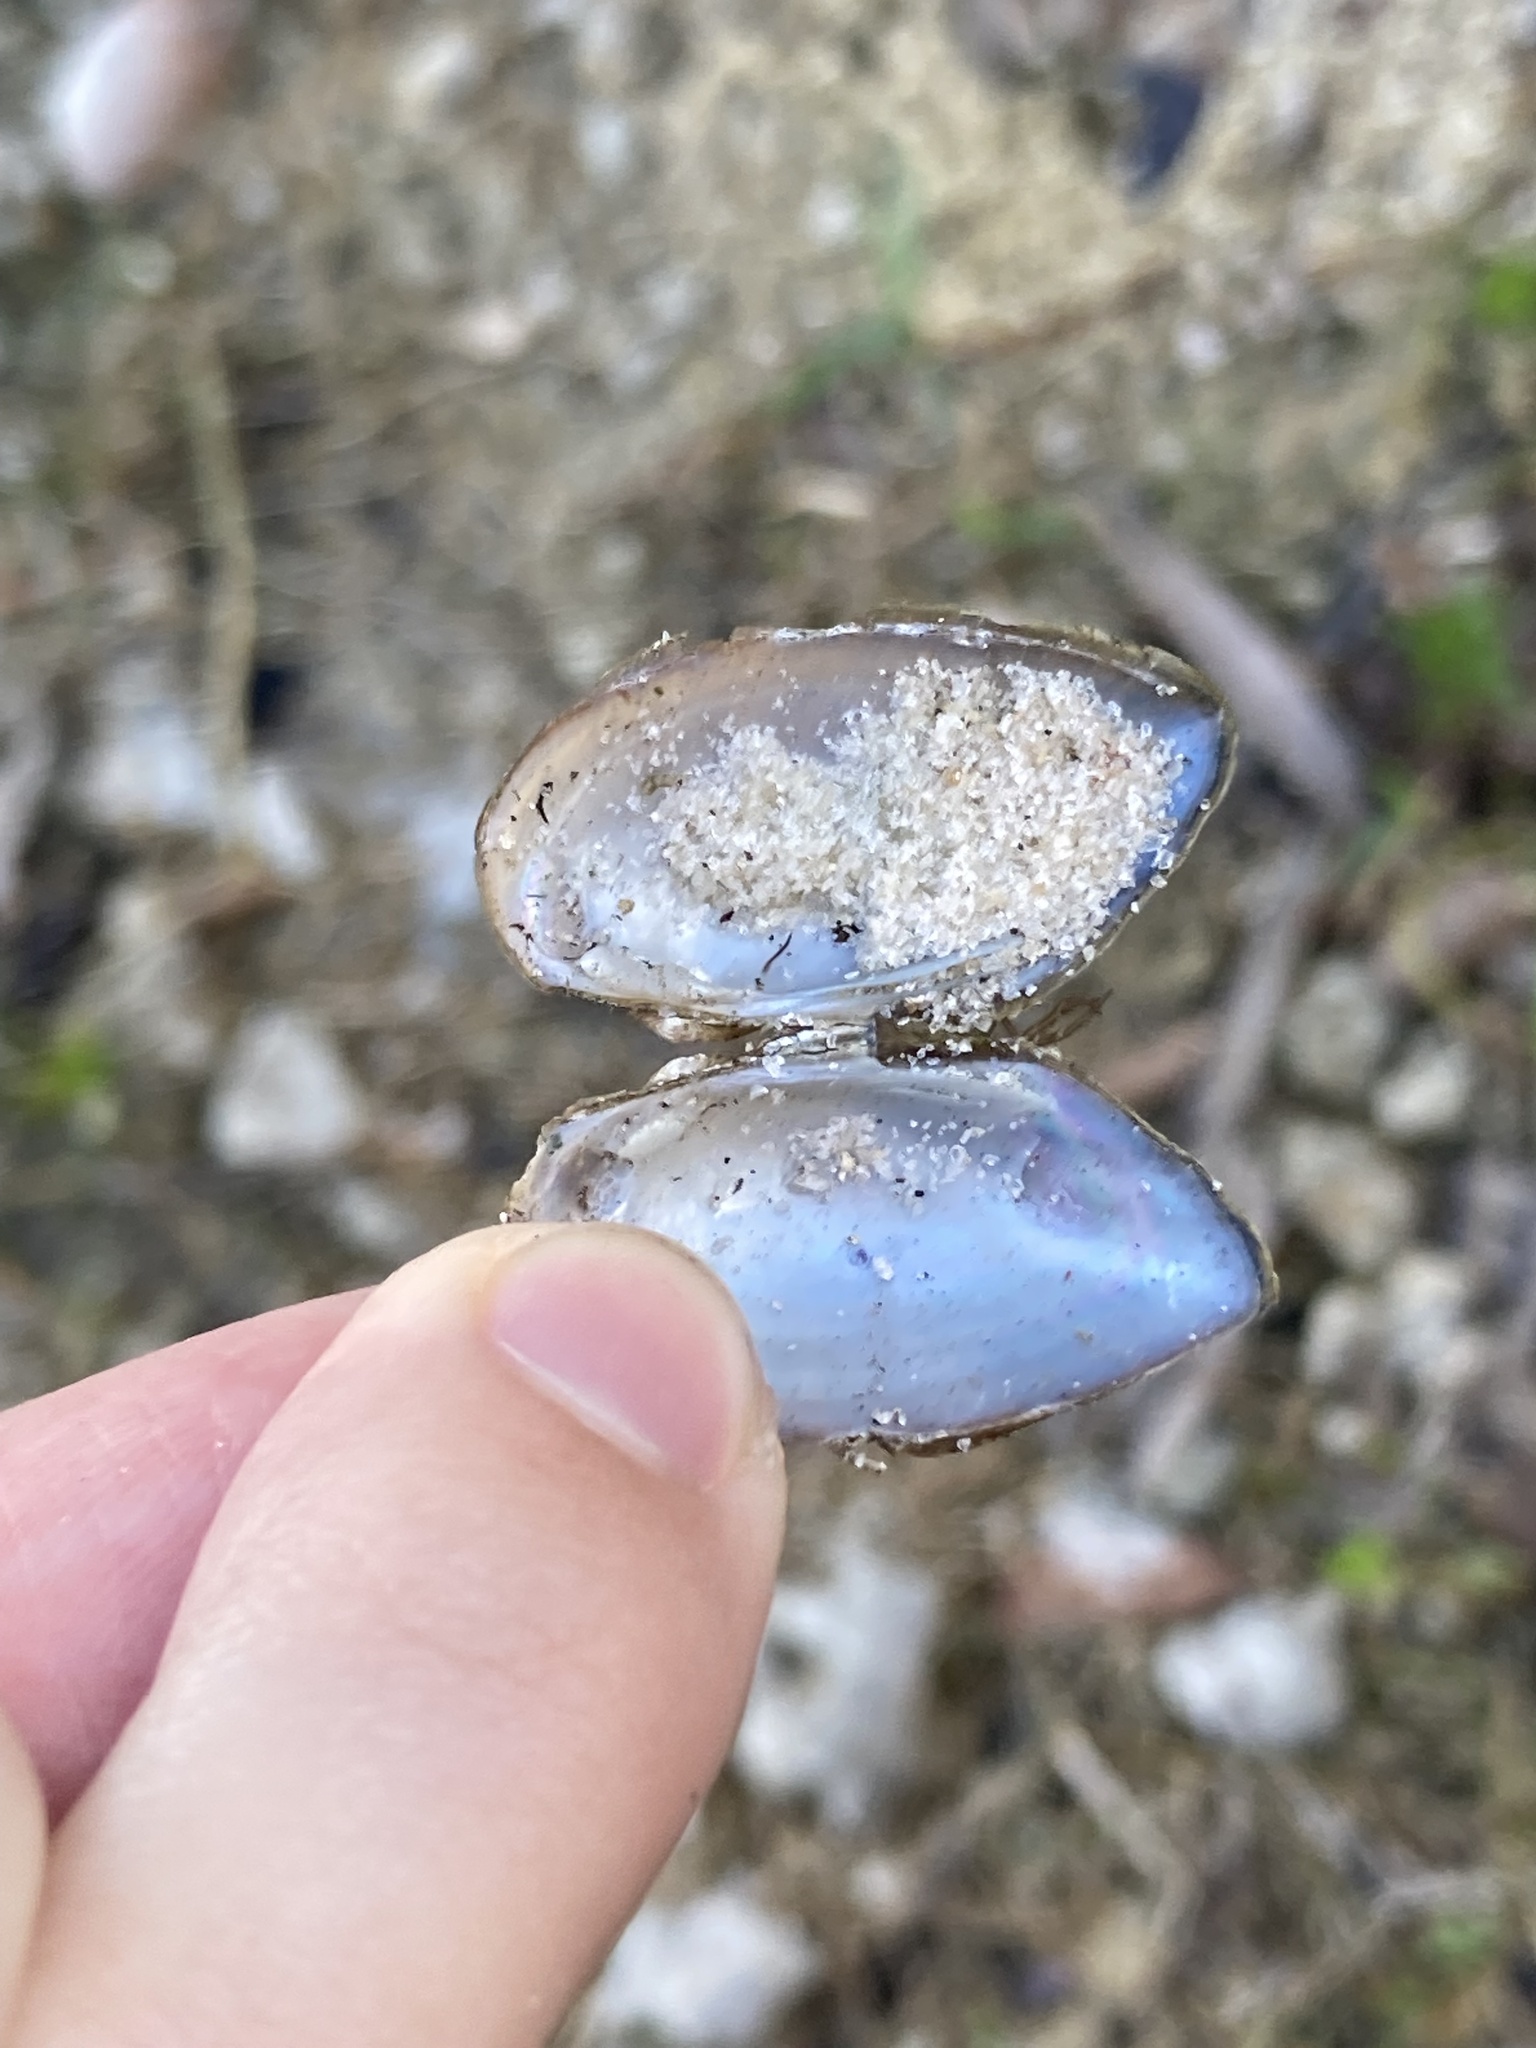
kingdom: Animalia
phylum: Mollusca
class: Bivalvia
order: Unionida
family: Unionidae
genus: Elliptio
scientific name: Elliptio jayensis
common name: Florida spike
